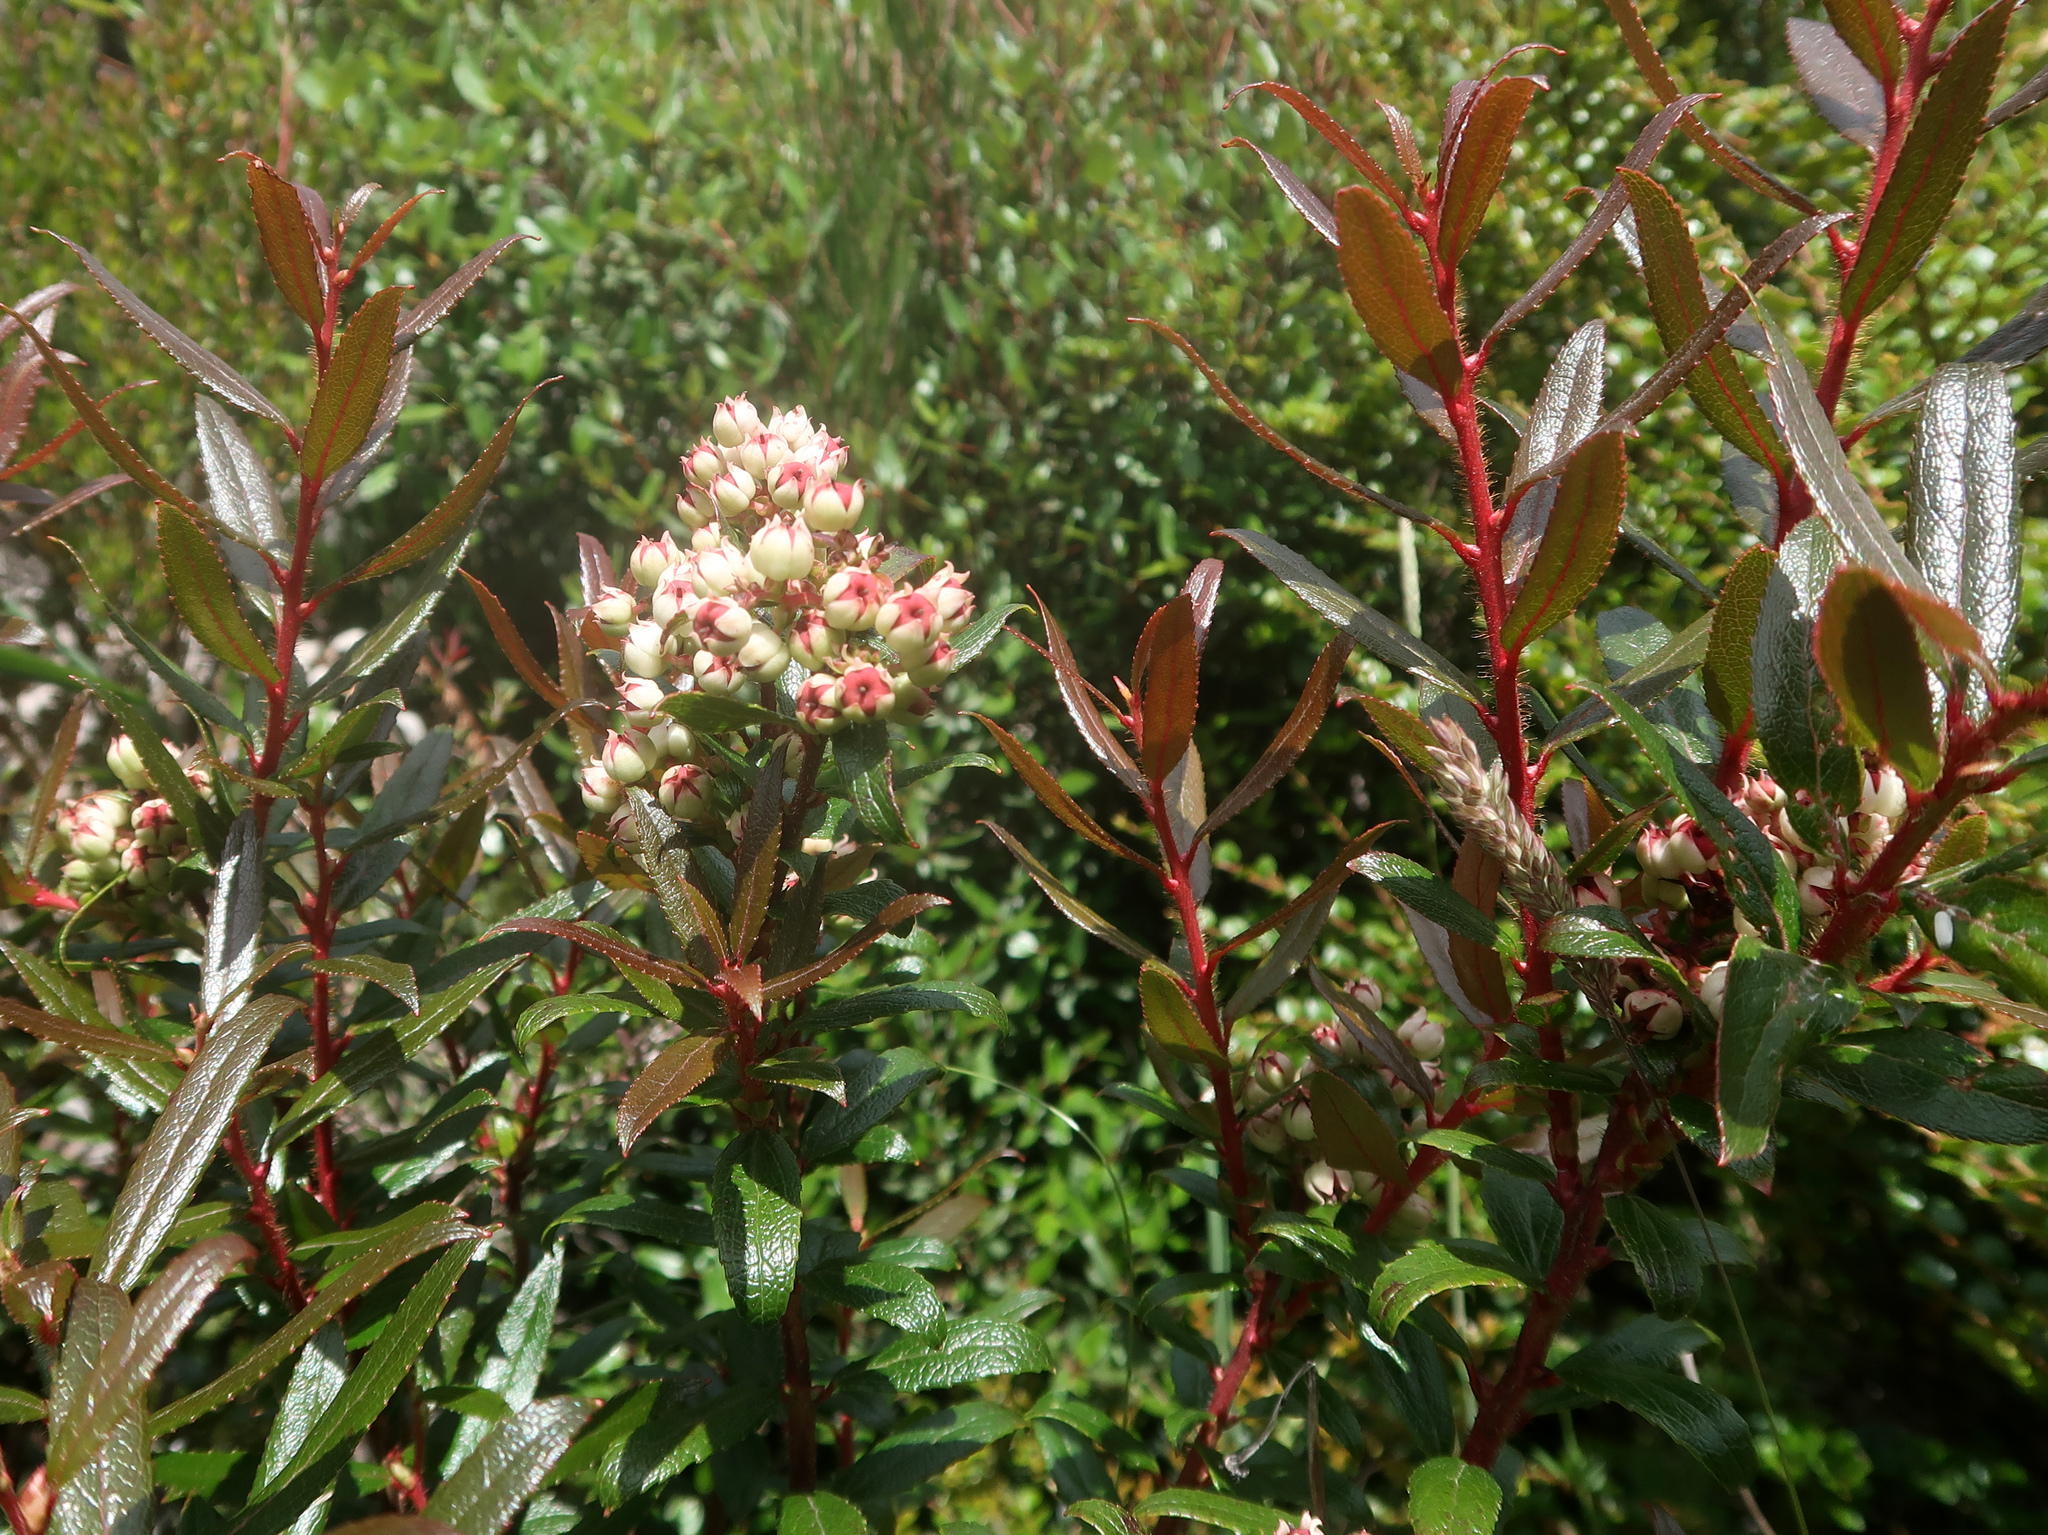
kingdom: Plantae
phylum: Tracheophyta
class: Magnoliopsida
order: Ericales
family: Ericaceae
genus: Gaultheria
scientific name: Gaultheria hispida
